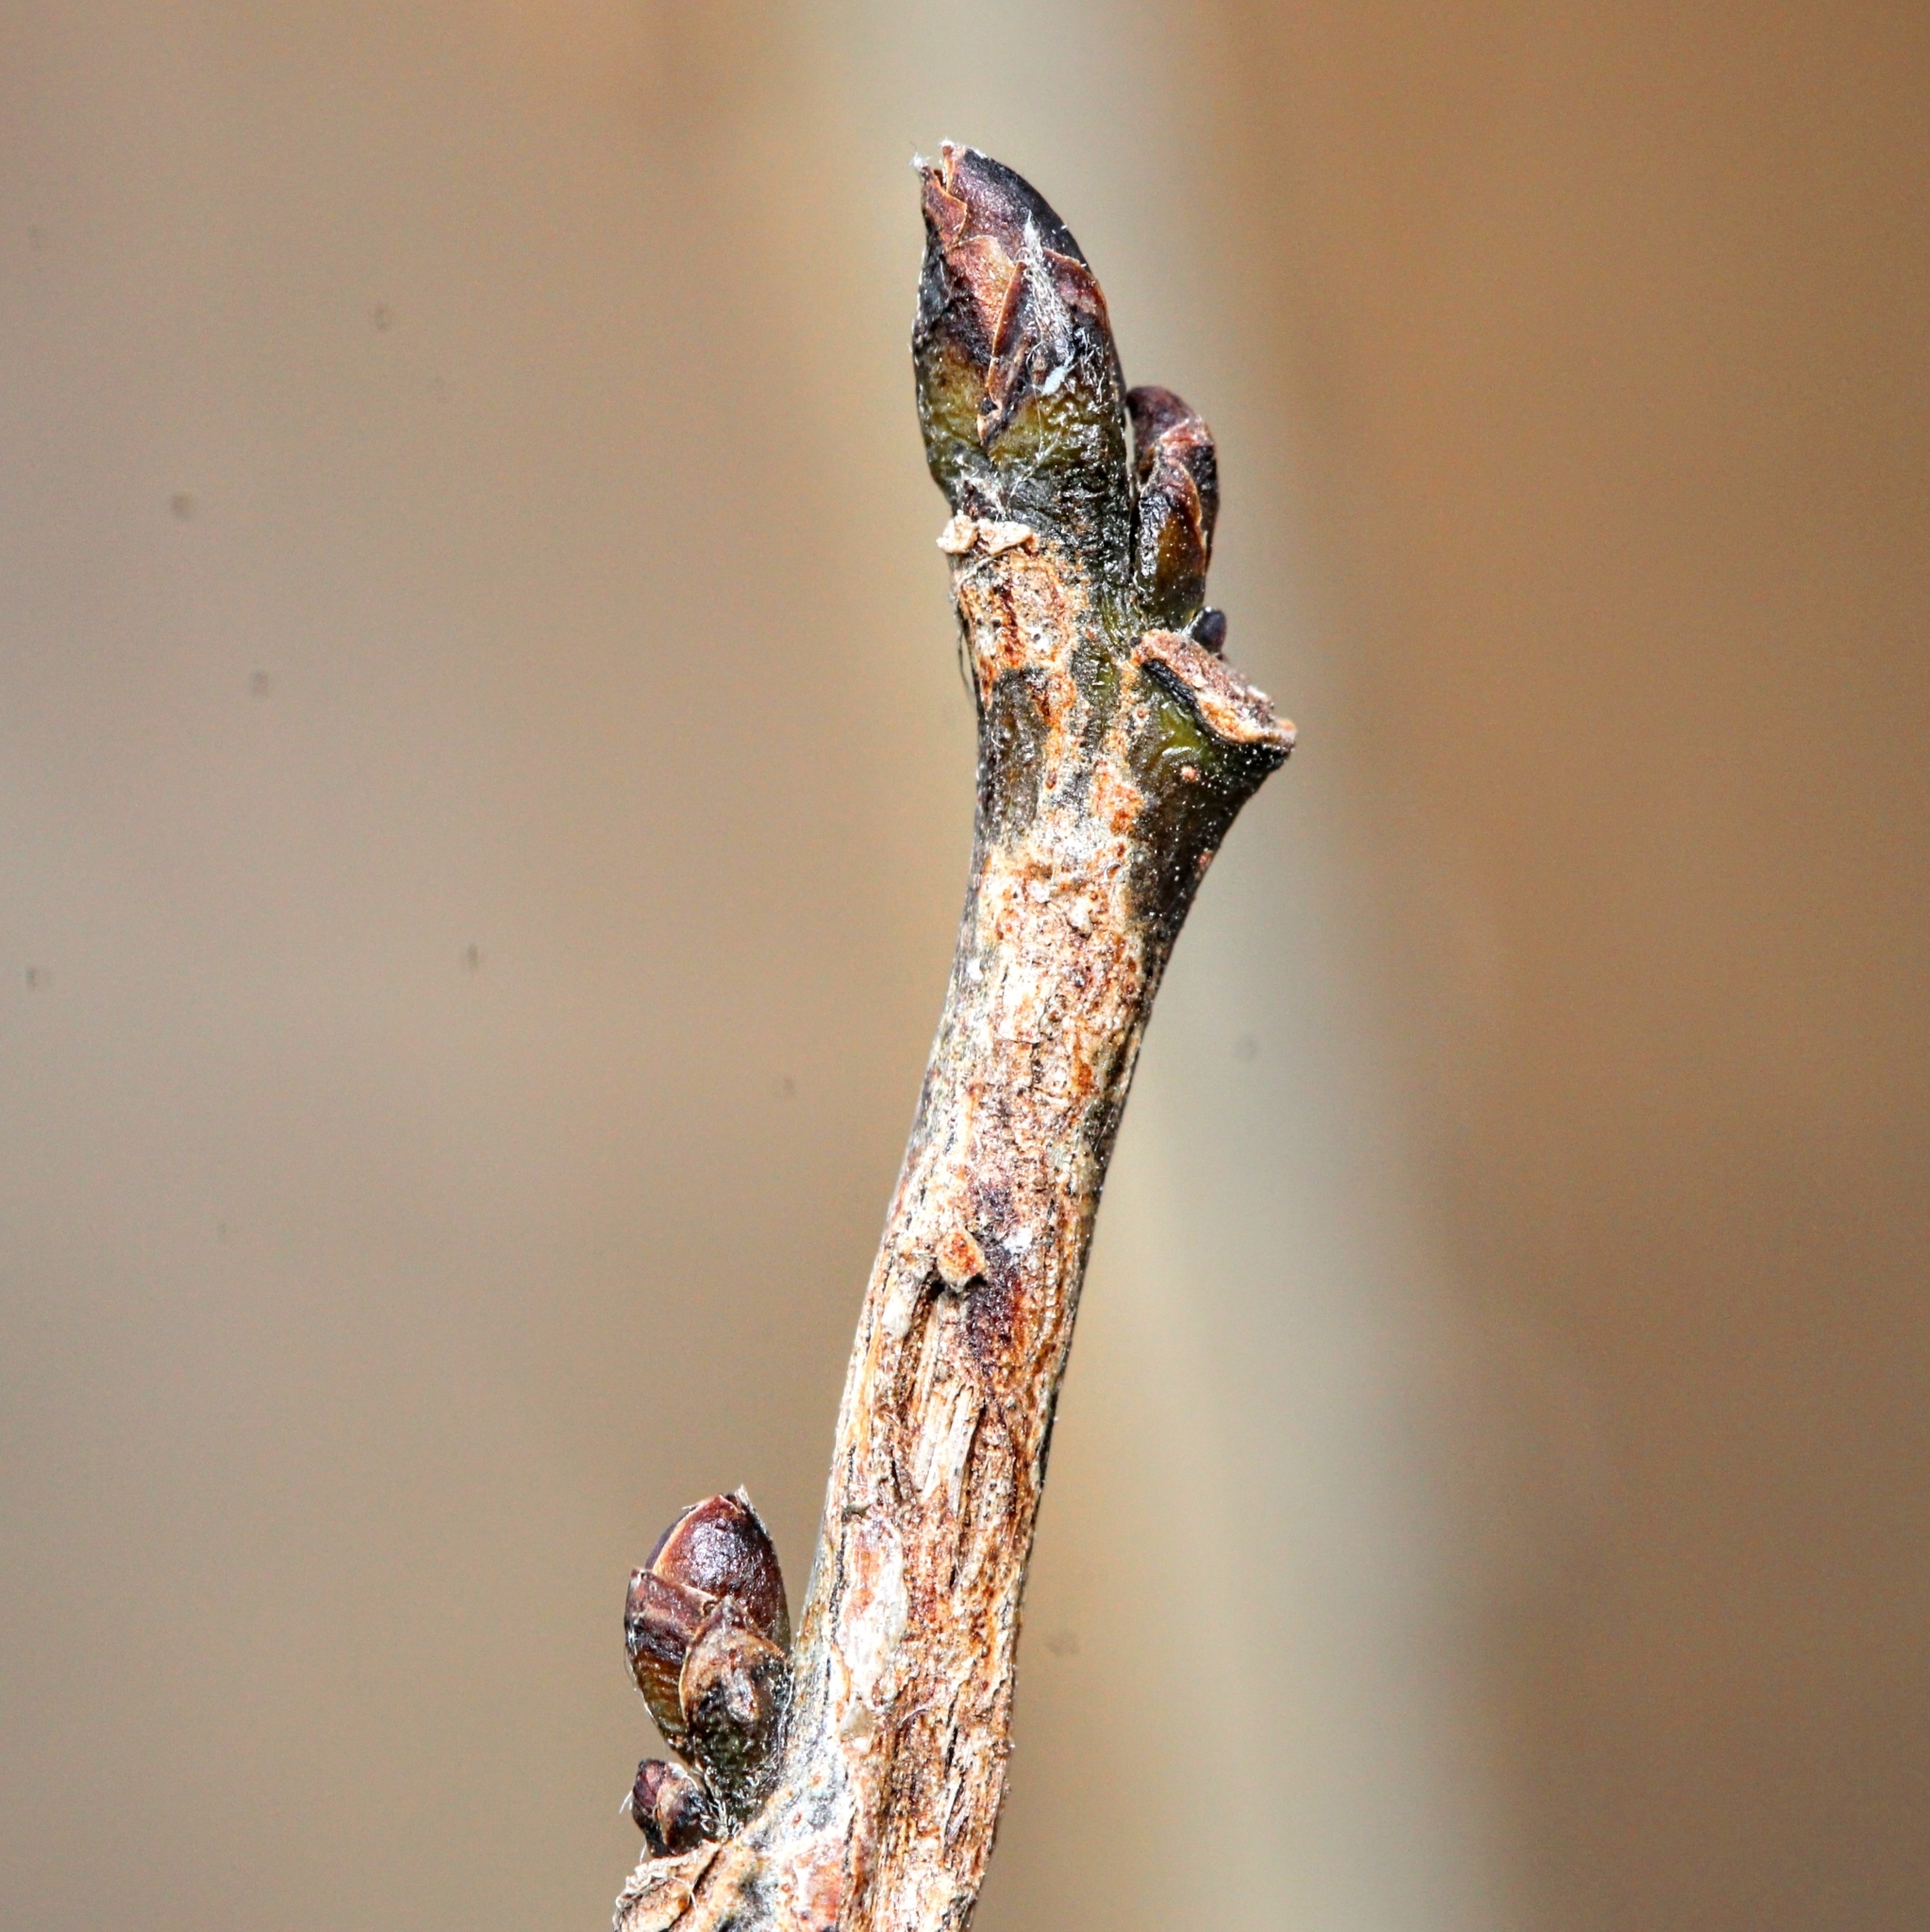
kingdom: Plantae
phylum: Tracheophyta
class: Magnoliopsida
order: Laurales
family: Lauraceae
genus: Lindera
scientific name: Lindera benzoin
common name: Spicebush
